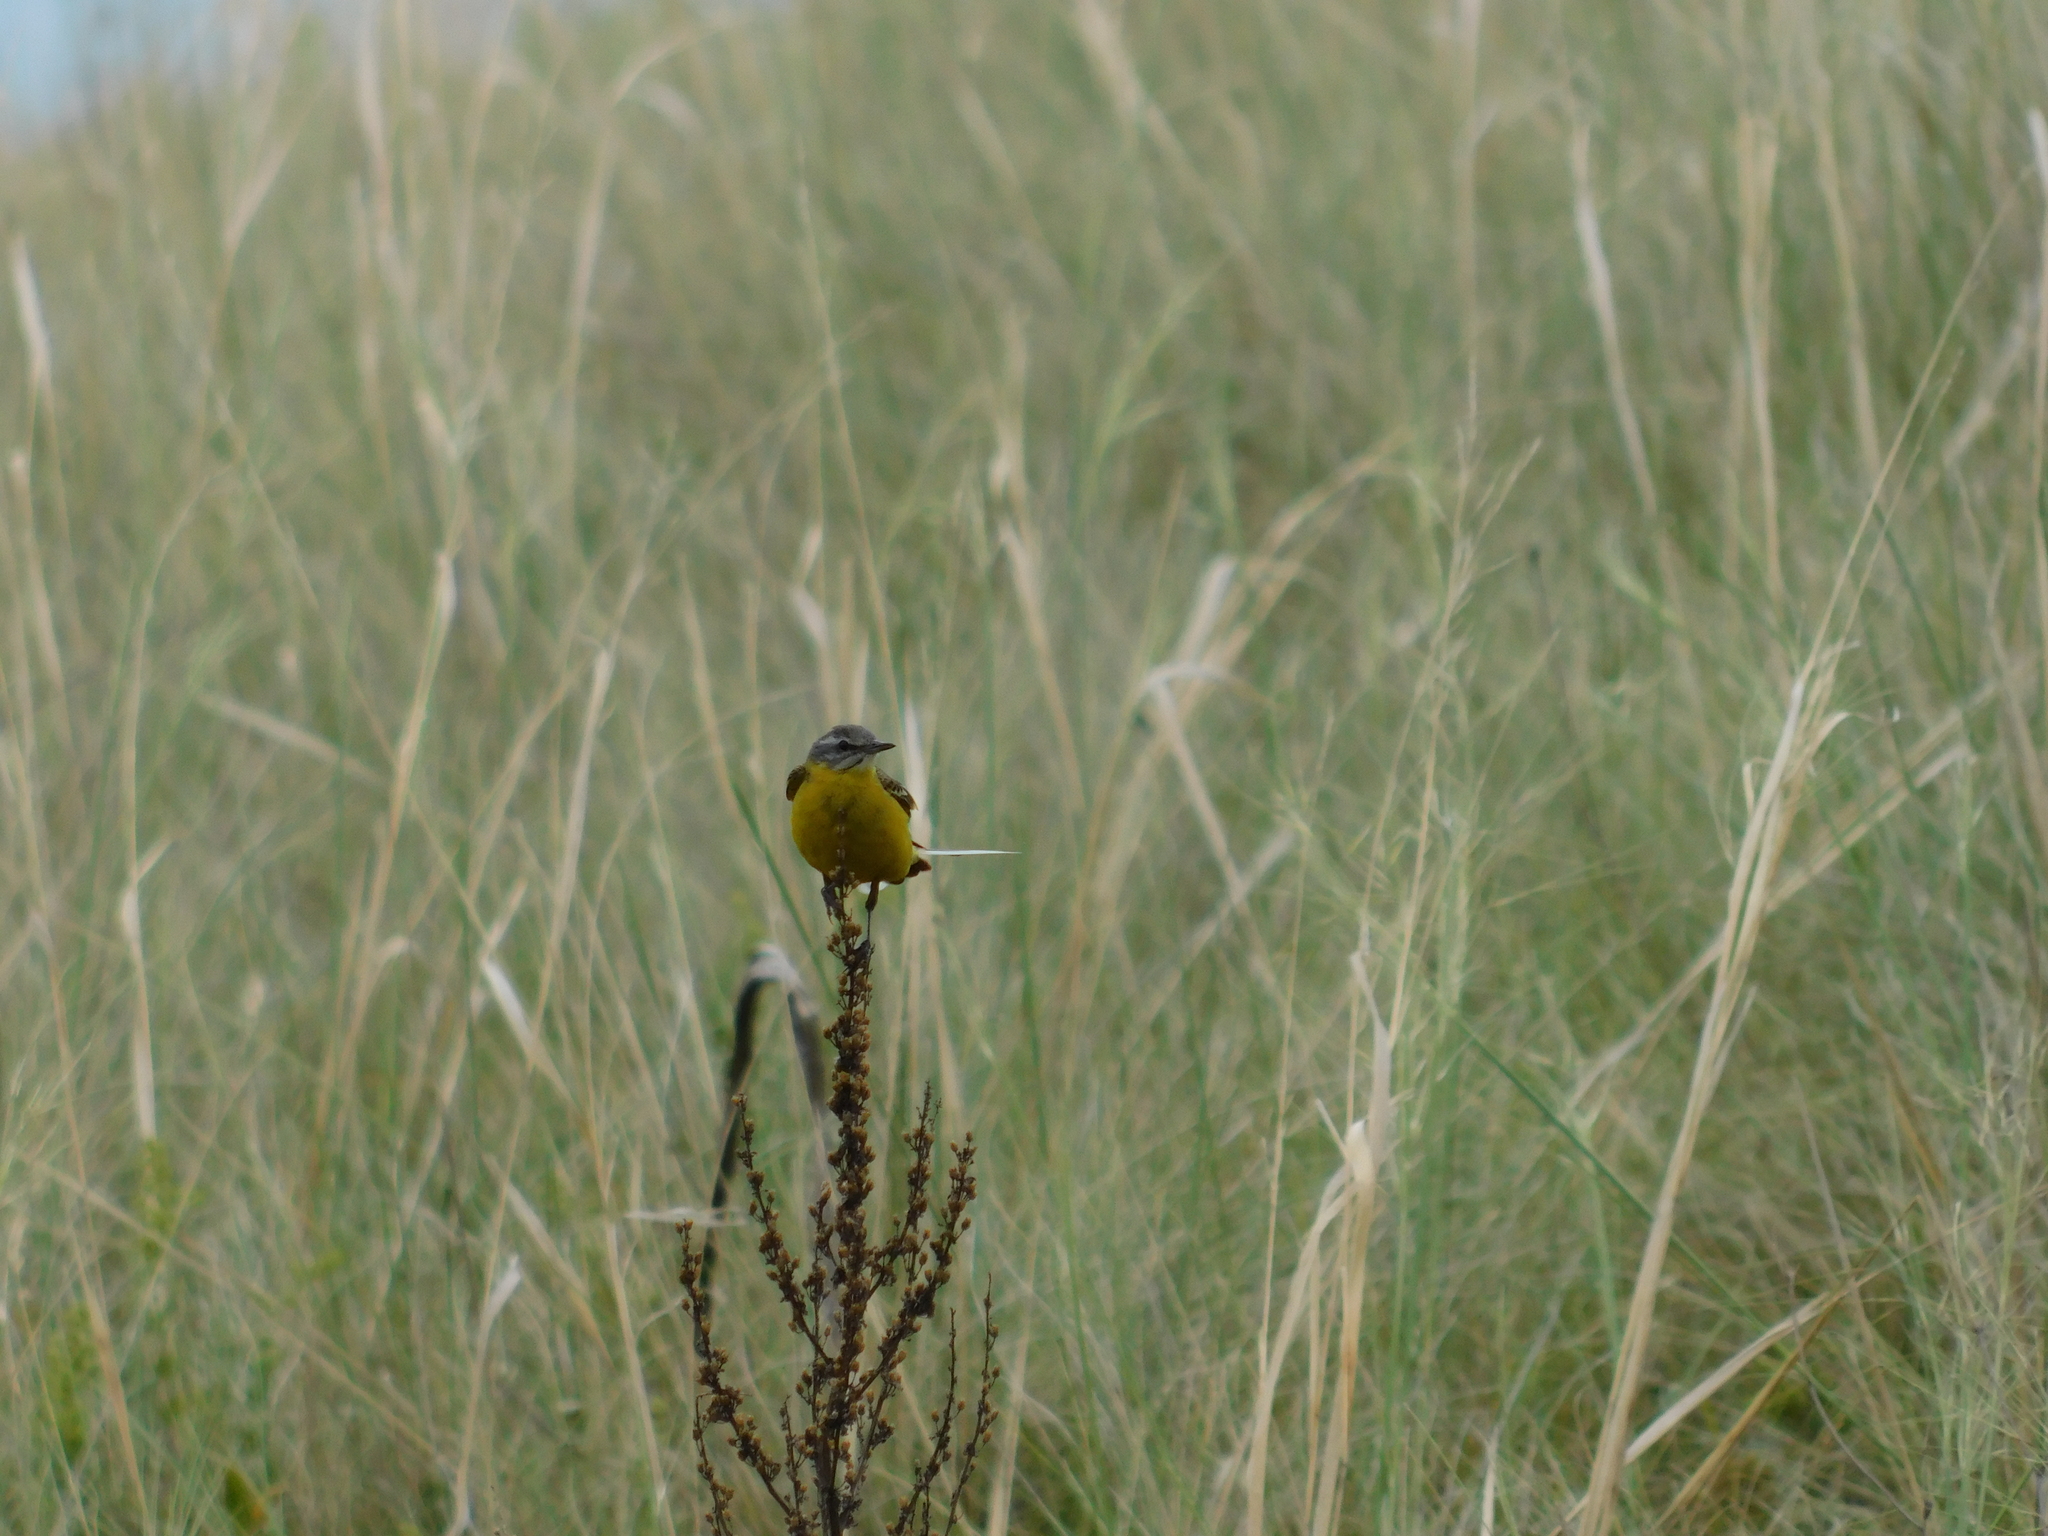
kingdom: Animalia
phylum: Chordata
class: Aves
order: Passeriformes
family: Motacillidae
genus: Motacilla
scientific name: Motacilla flava
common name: Western yellow wagtail
